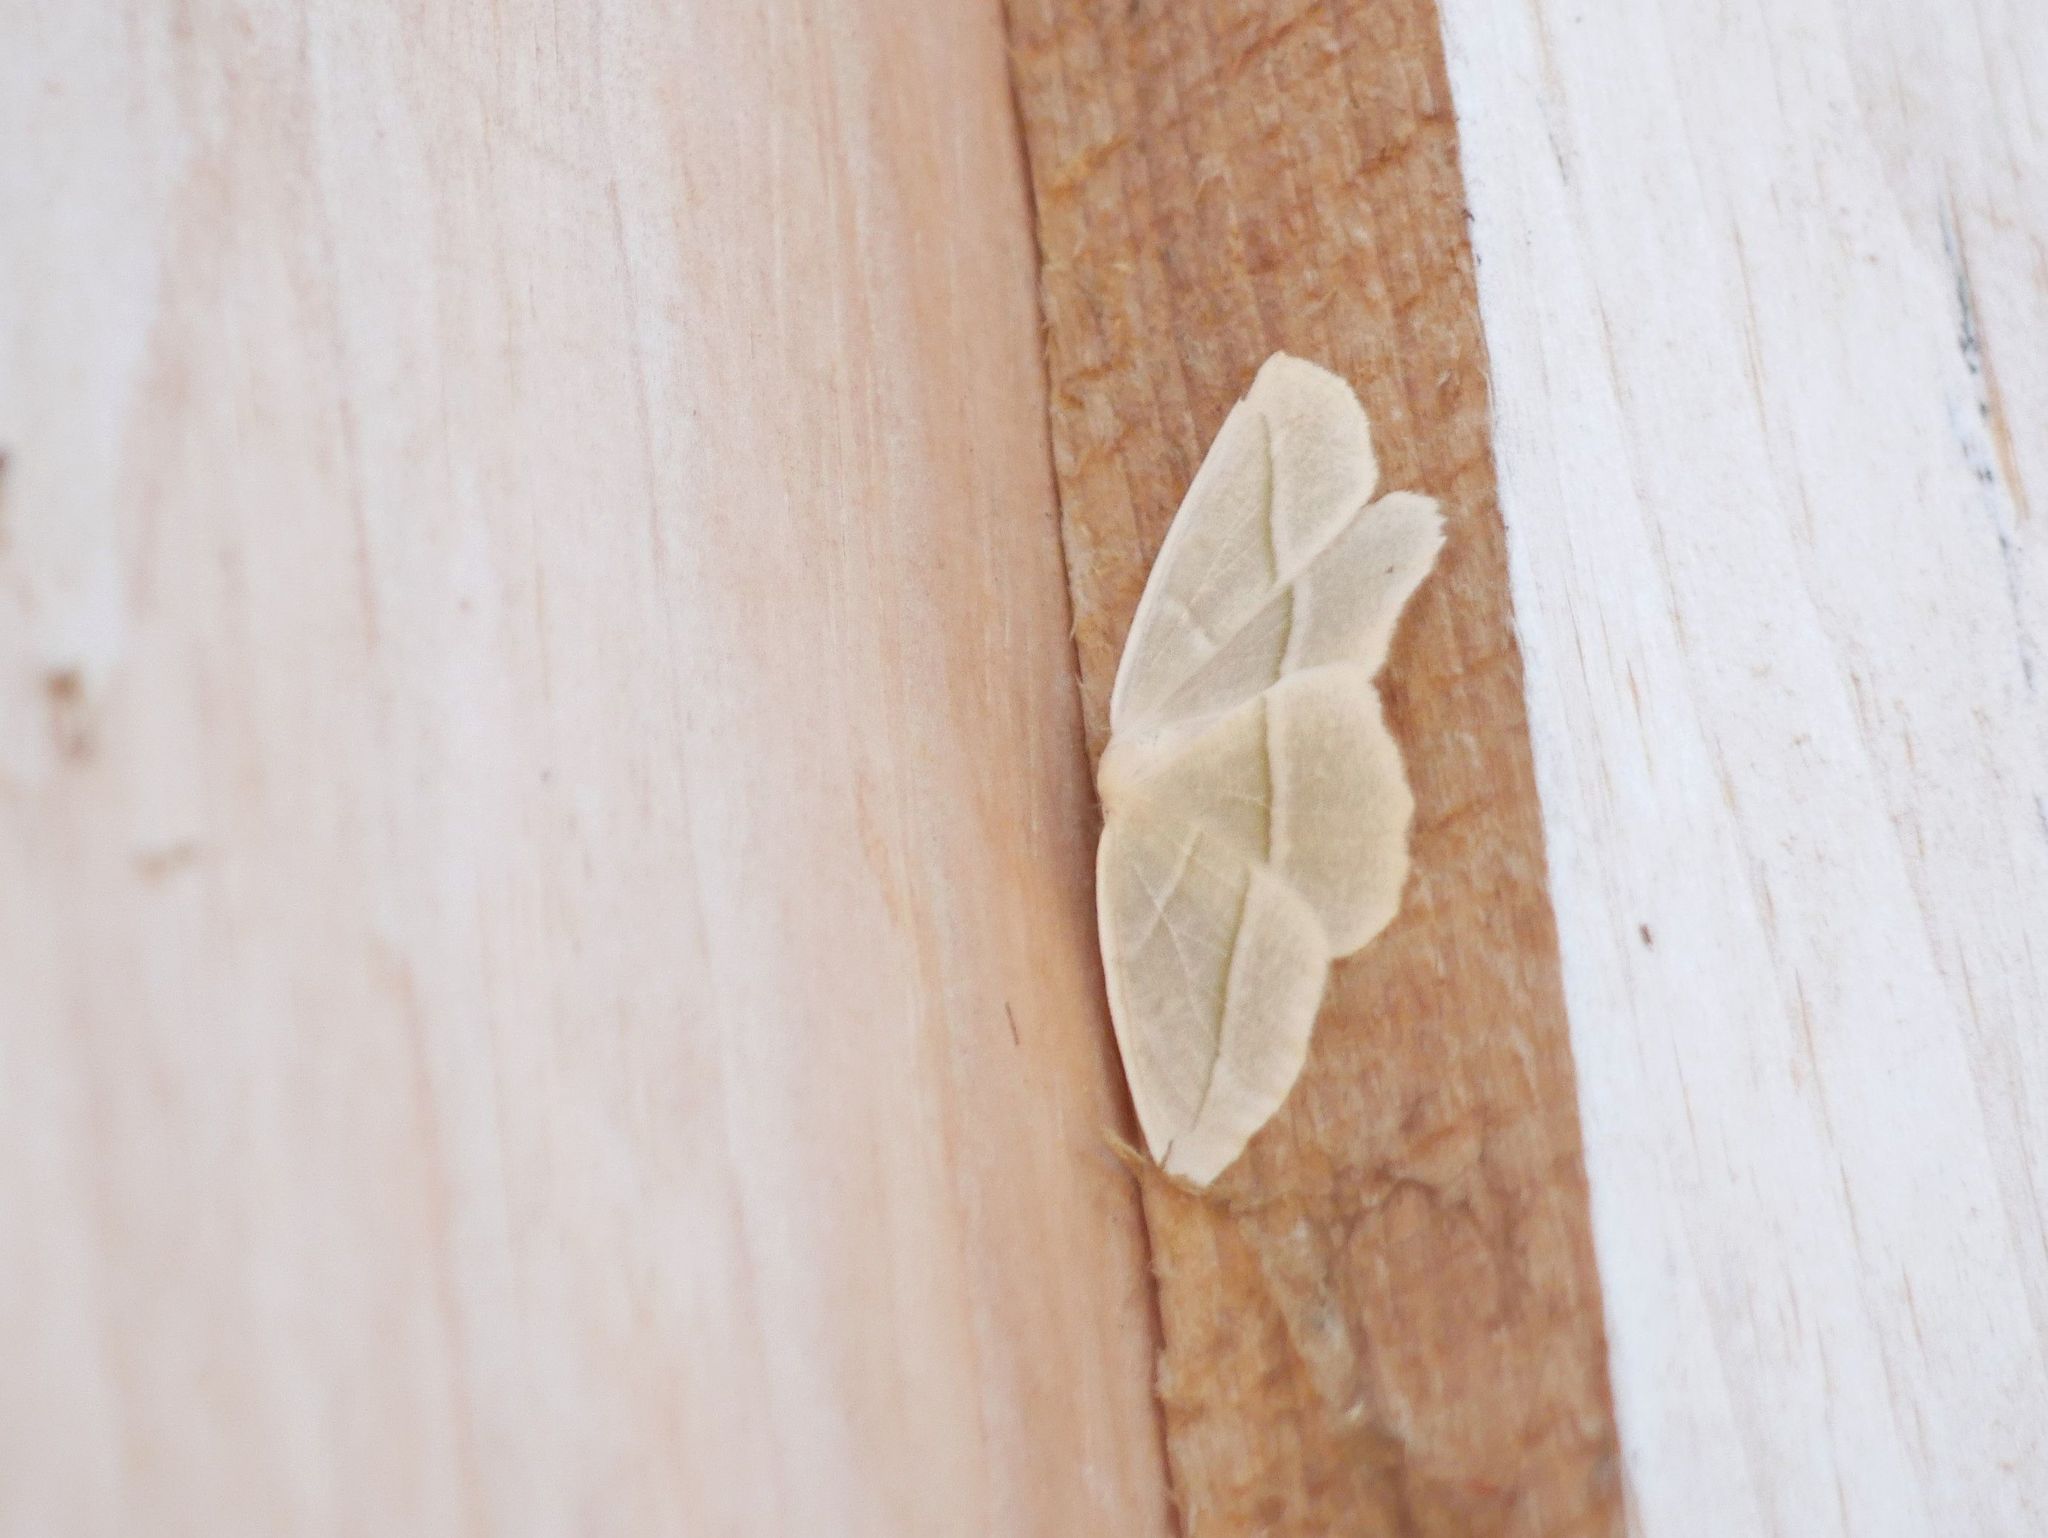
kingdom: Animalia
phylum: Arthropoda
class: Insecta
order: Lepidoptera
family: Geometridae
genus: Campaea
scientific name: Campaea perlata
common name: Fringed looper
